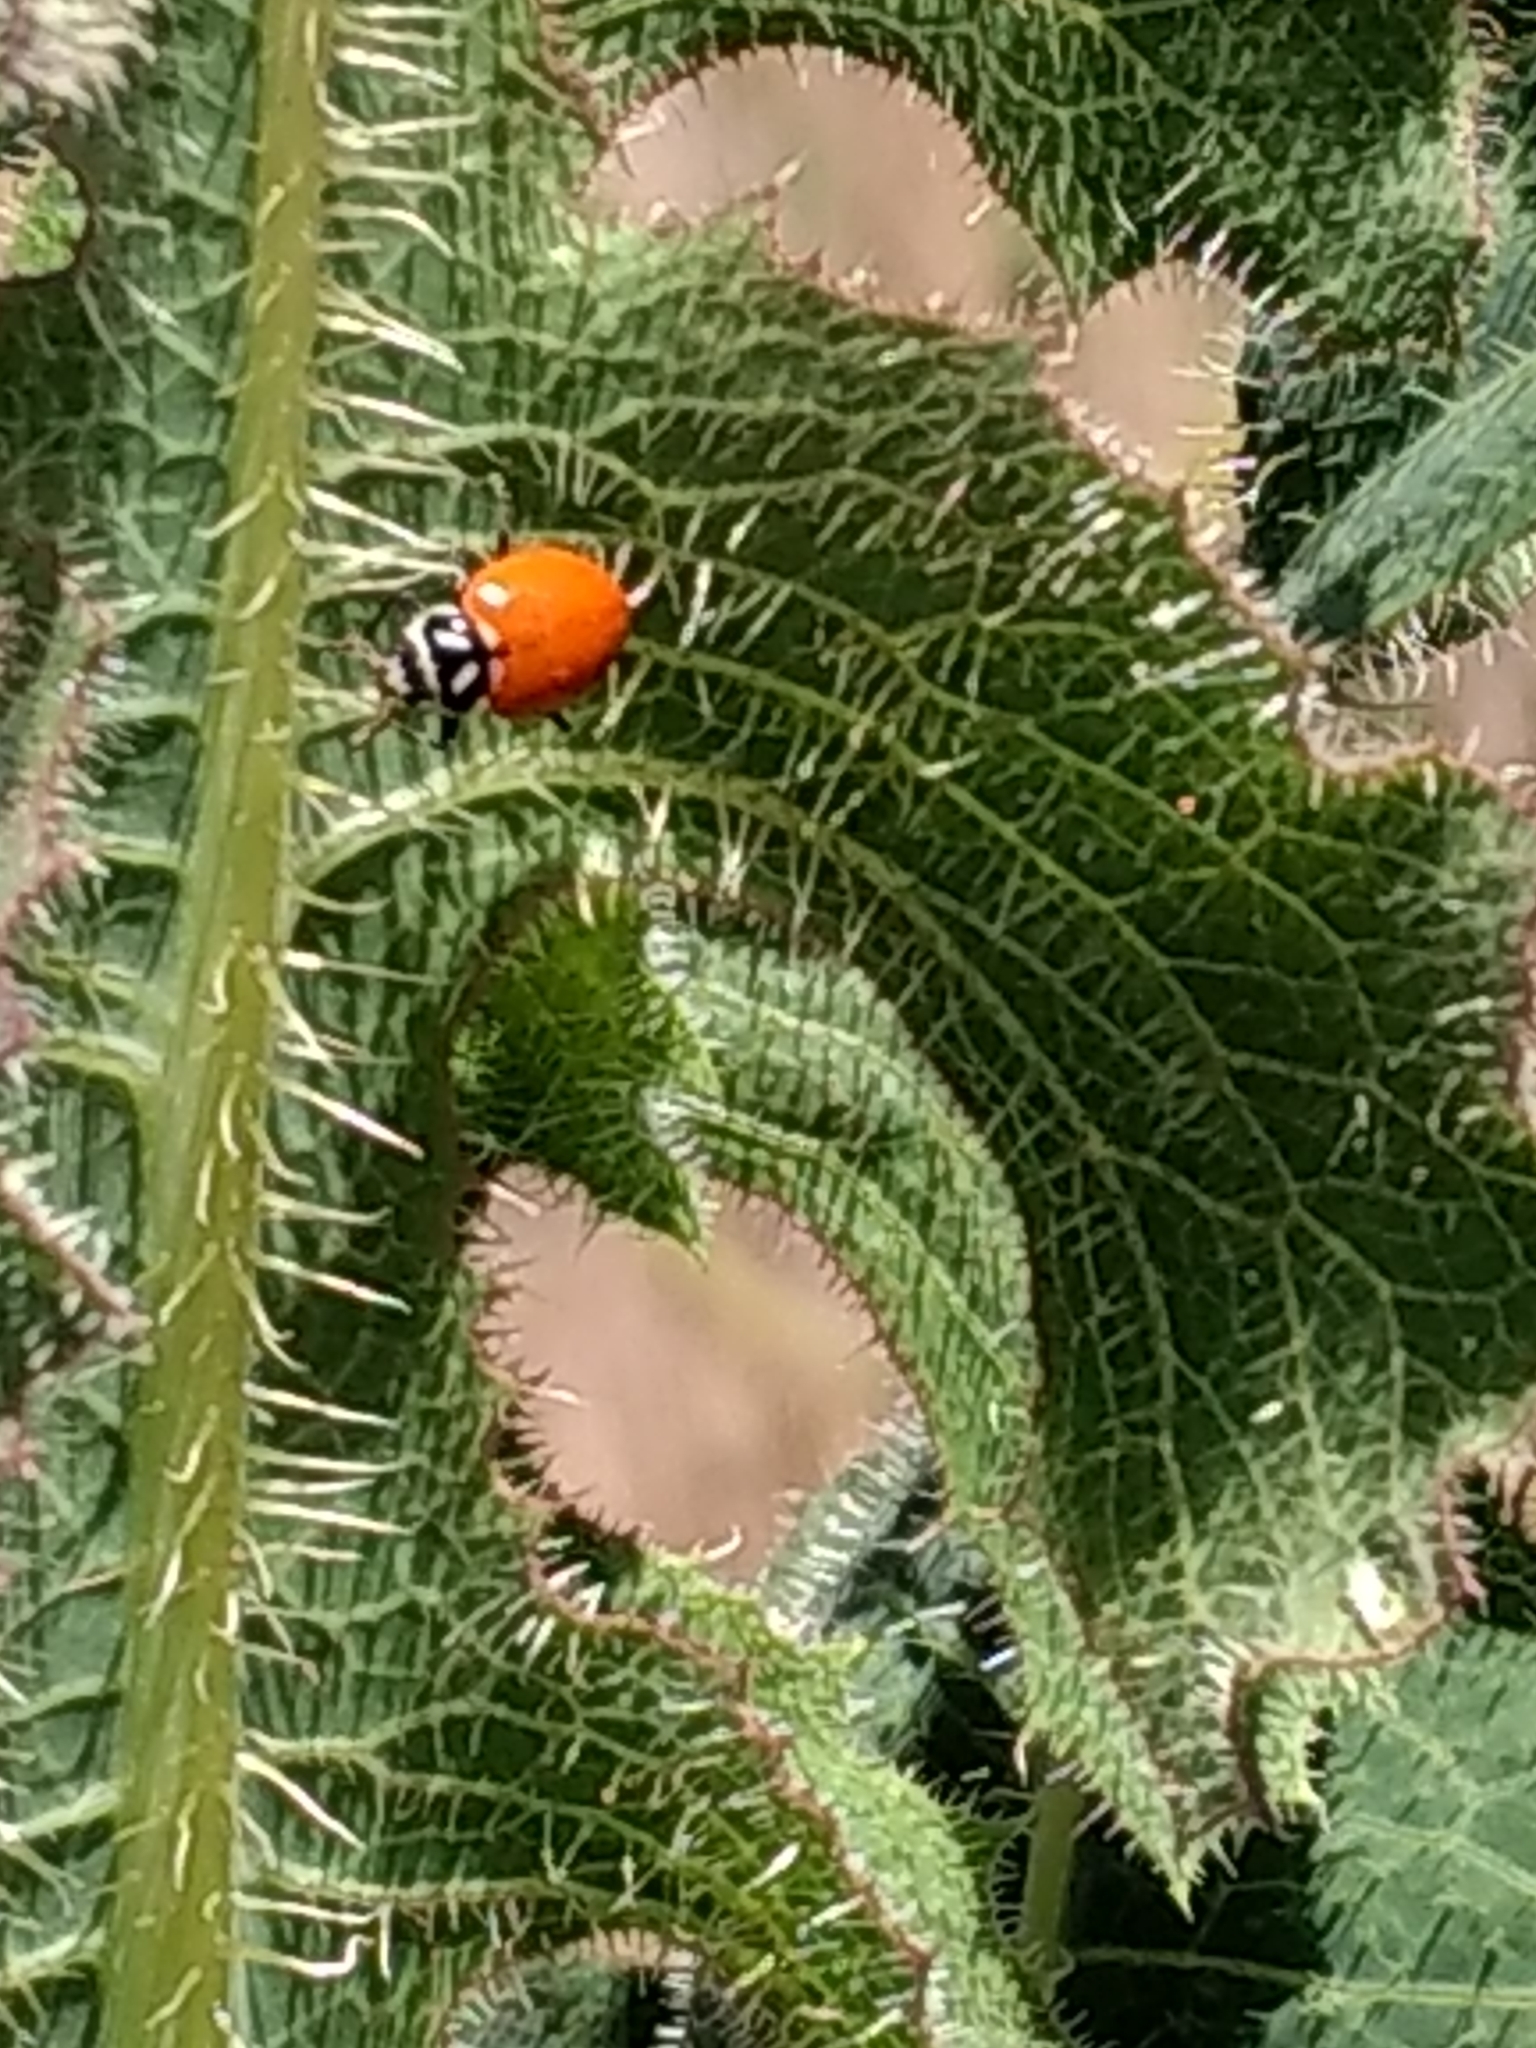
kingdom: Animalia
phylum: Arthropoda
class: Insecta
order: Coleoptera
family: Coccinellidae
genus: Hippodamia
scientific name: Hippodamia convergens
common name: Convergent lady beetle
